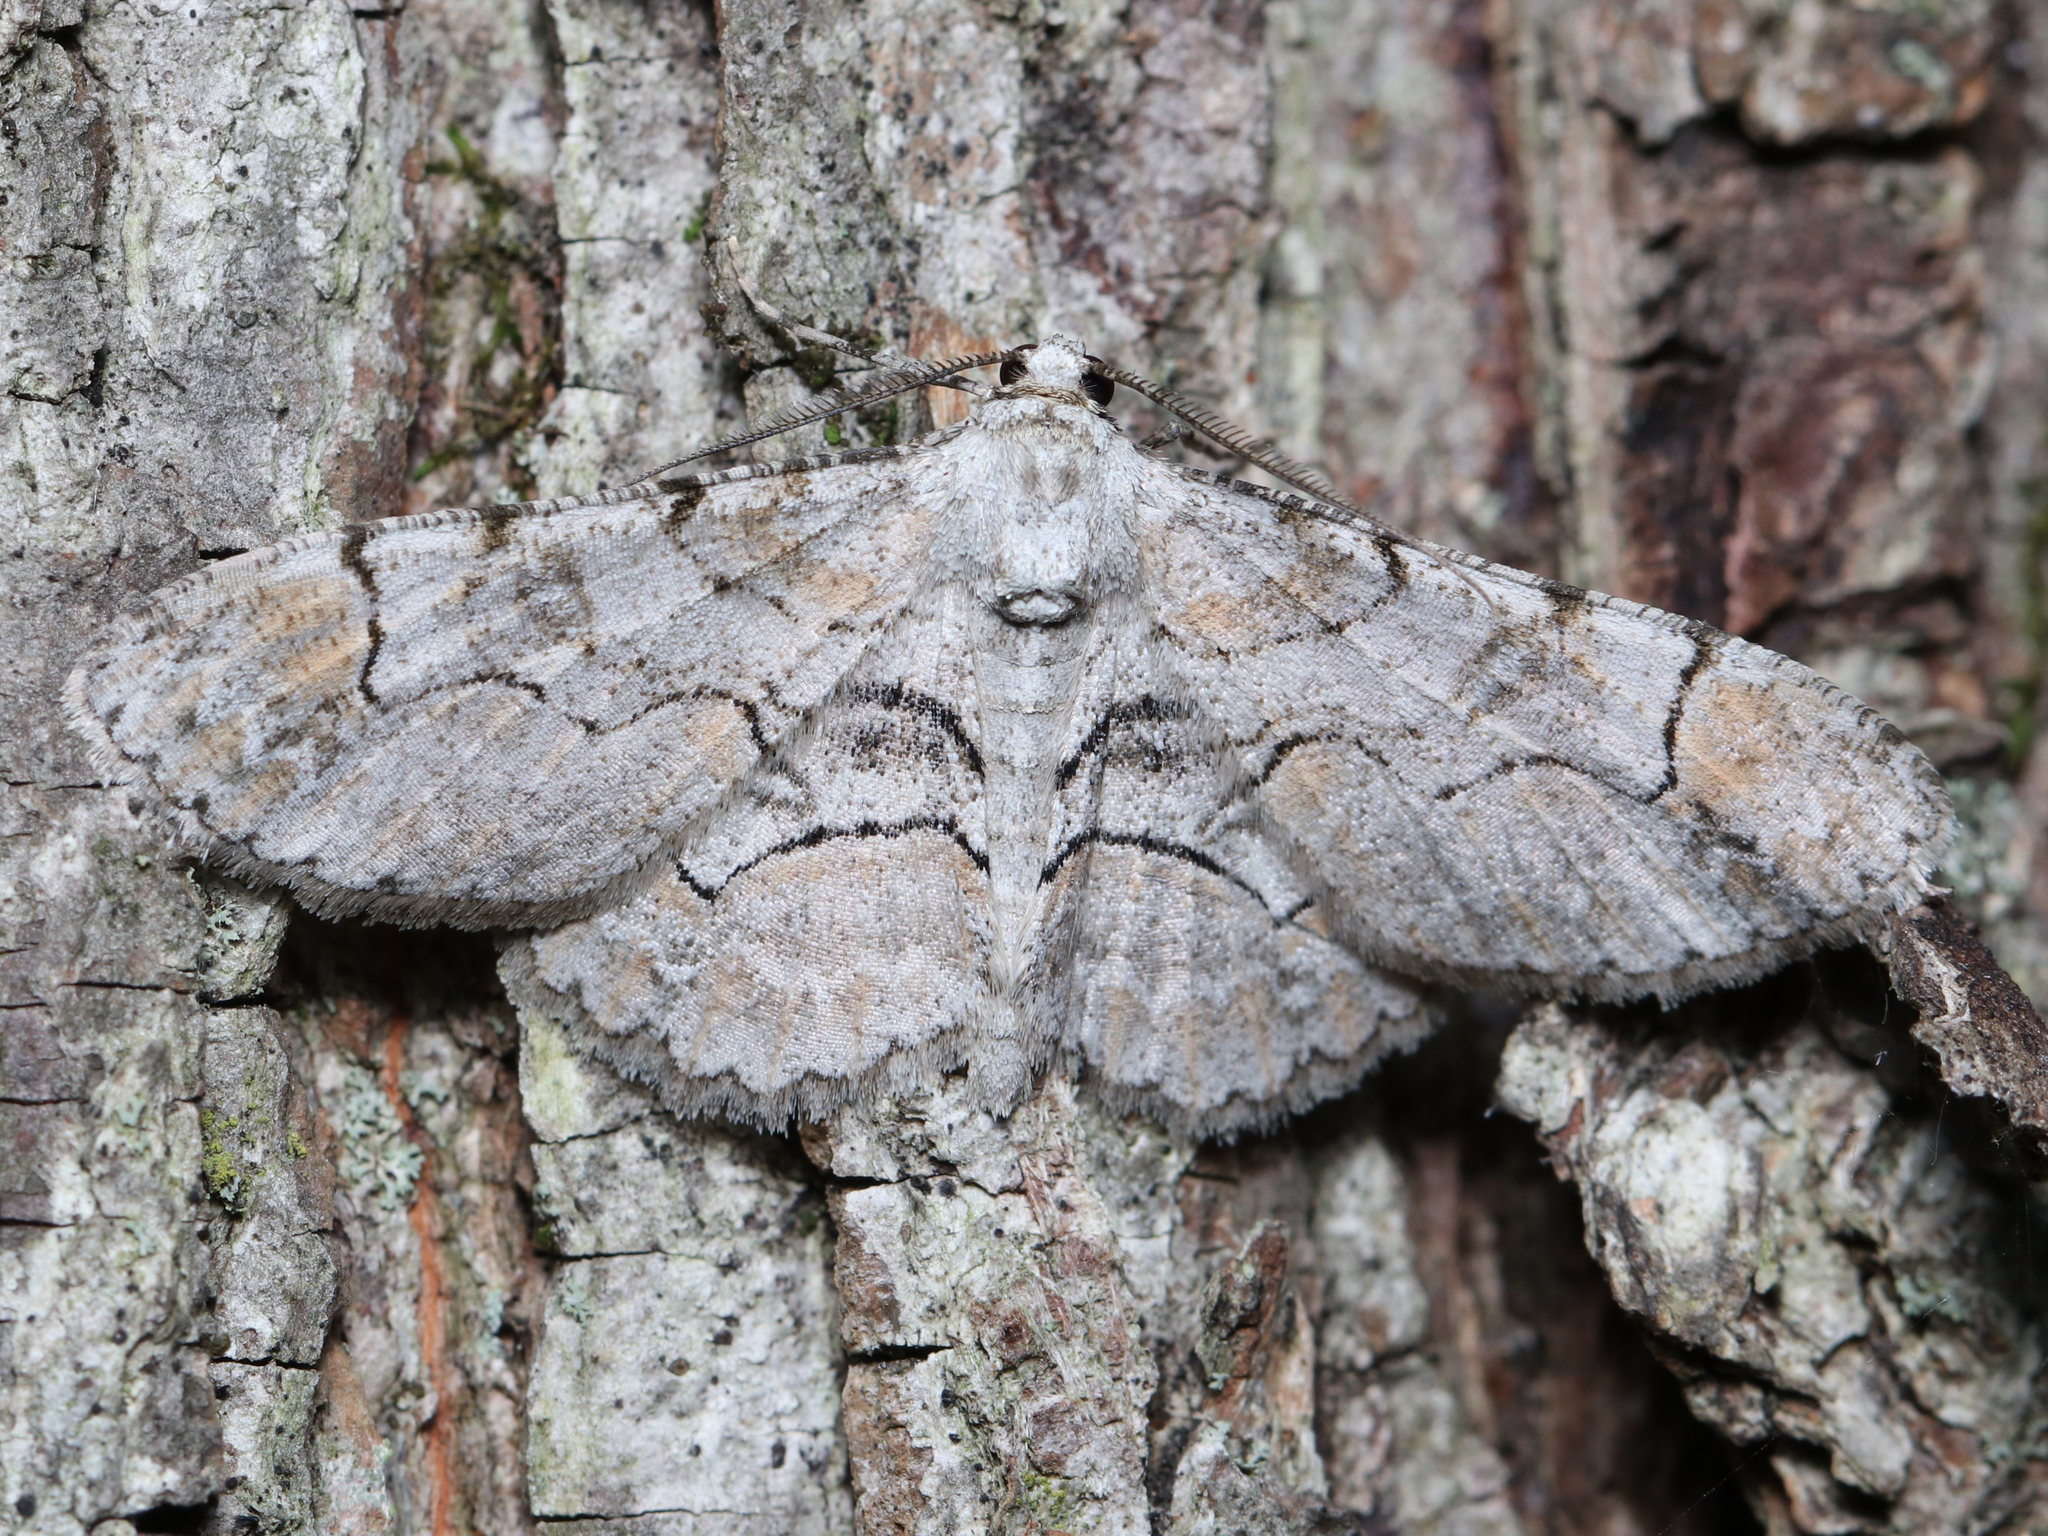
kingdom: Animalia
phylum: Arthropoda
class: Insecta
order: Lepidoptera
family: Geometridae
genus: Iridopsis
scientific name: Iridopsis larvaria
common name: Bent-line gray
